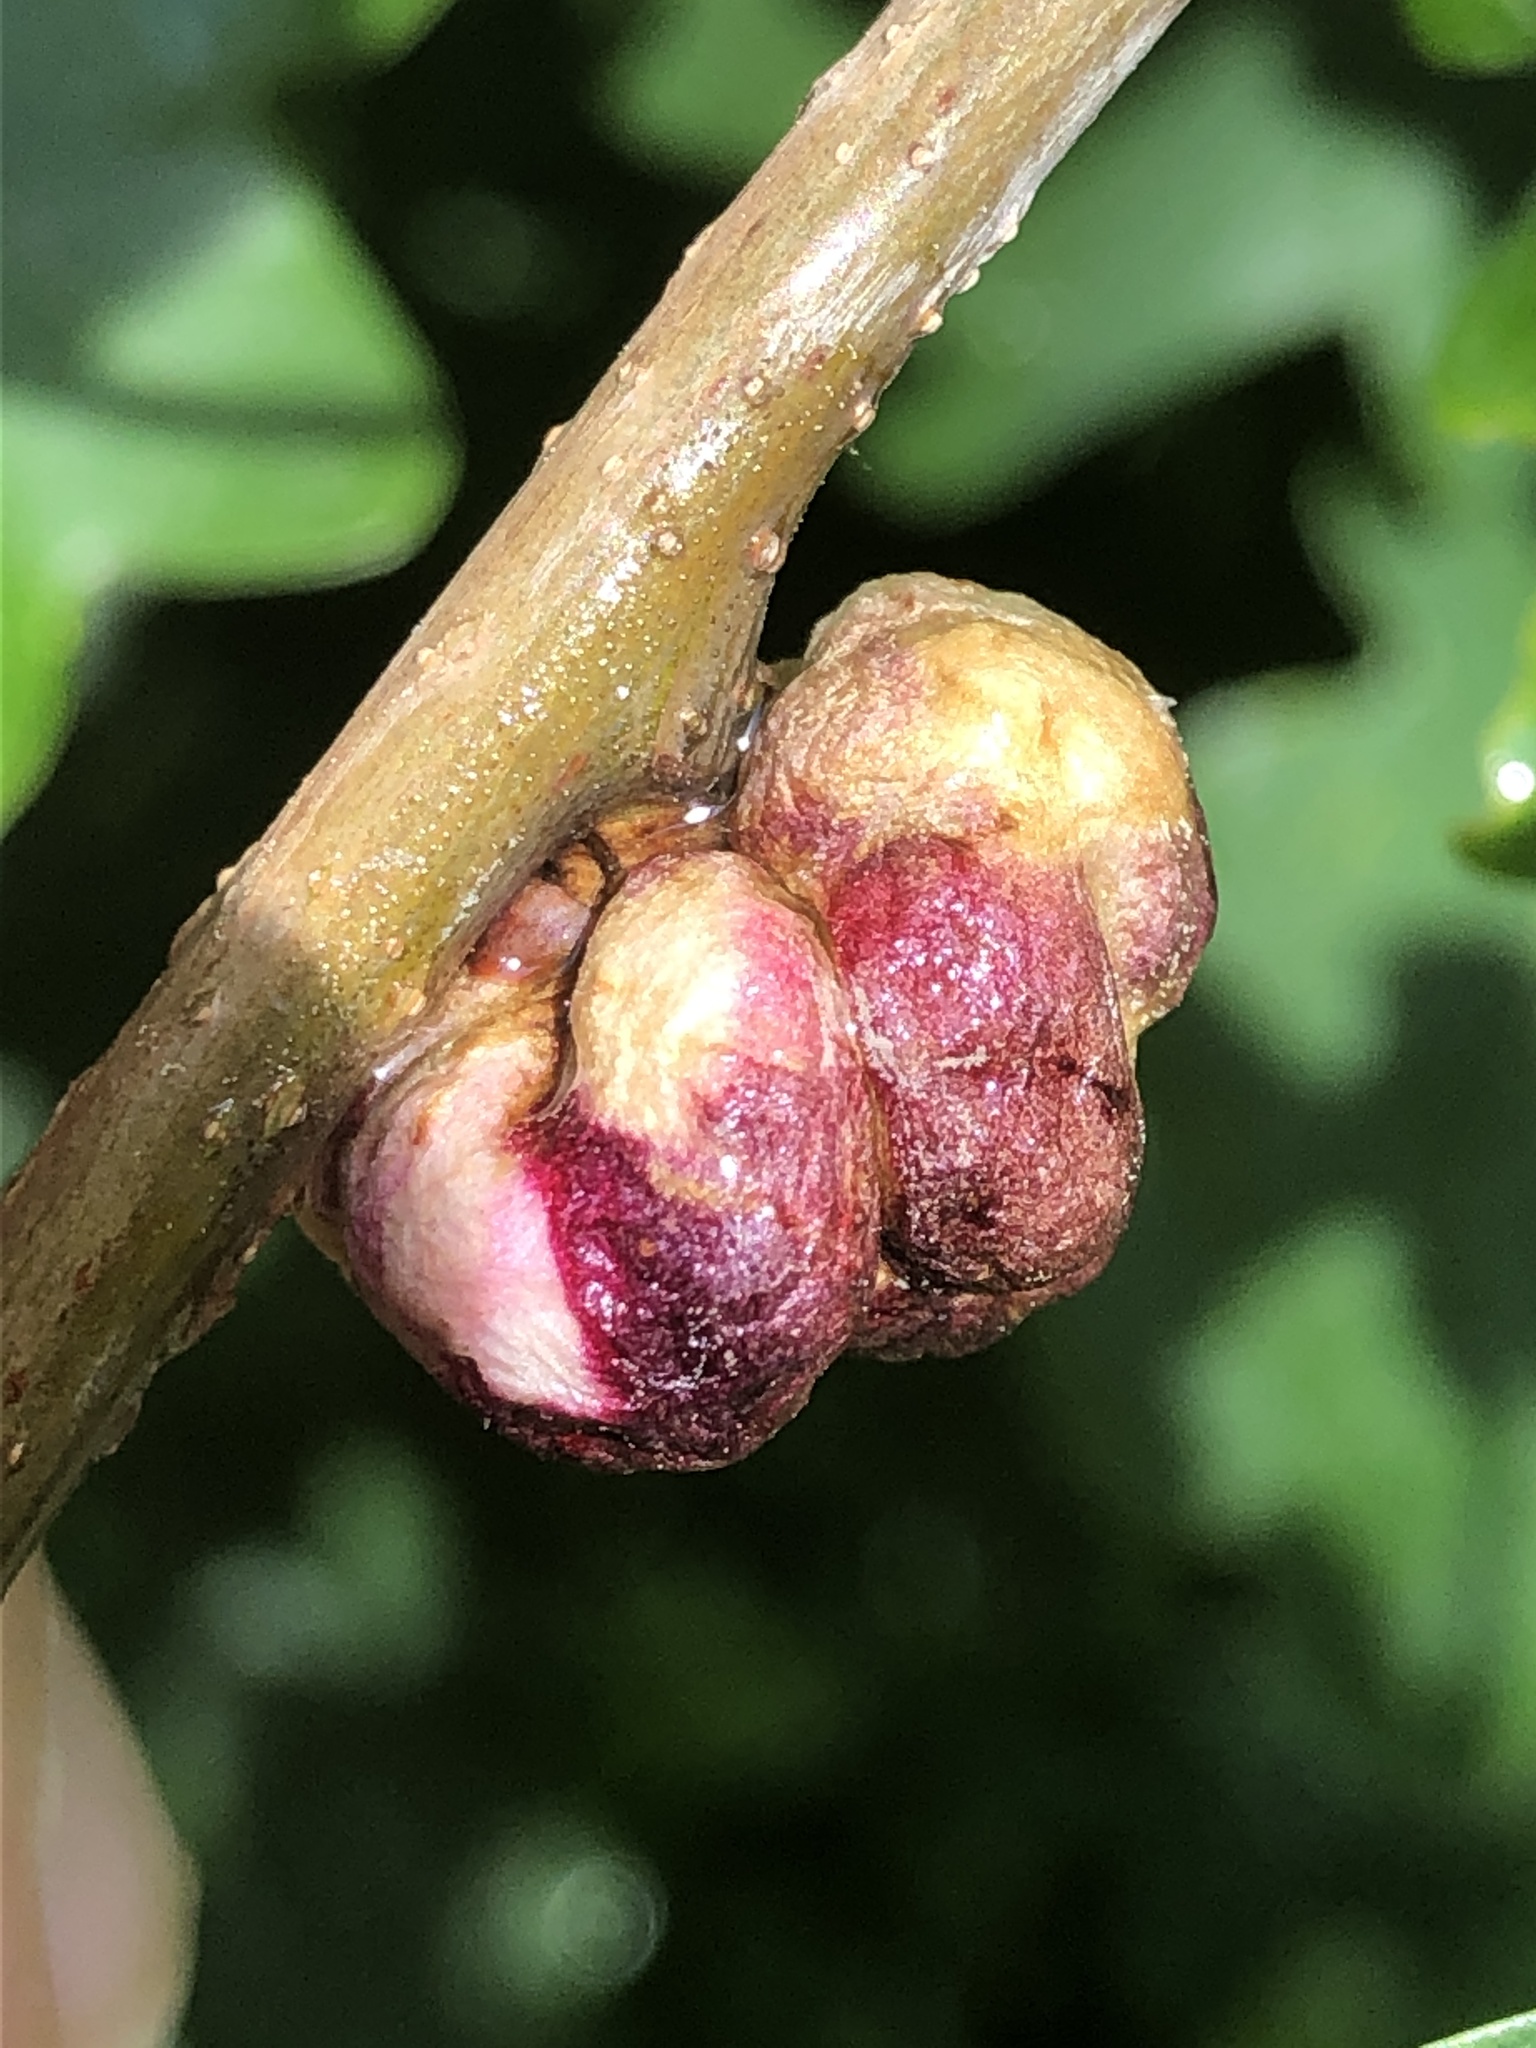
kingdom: Animalia
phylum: Arthropoda
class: Insecta
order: Hymenoptera
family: Cynipidae
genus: Biorhiza
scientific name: Biorhiza pallida
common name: Oak apple
